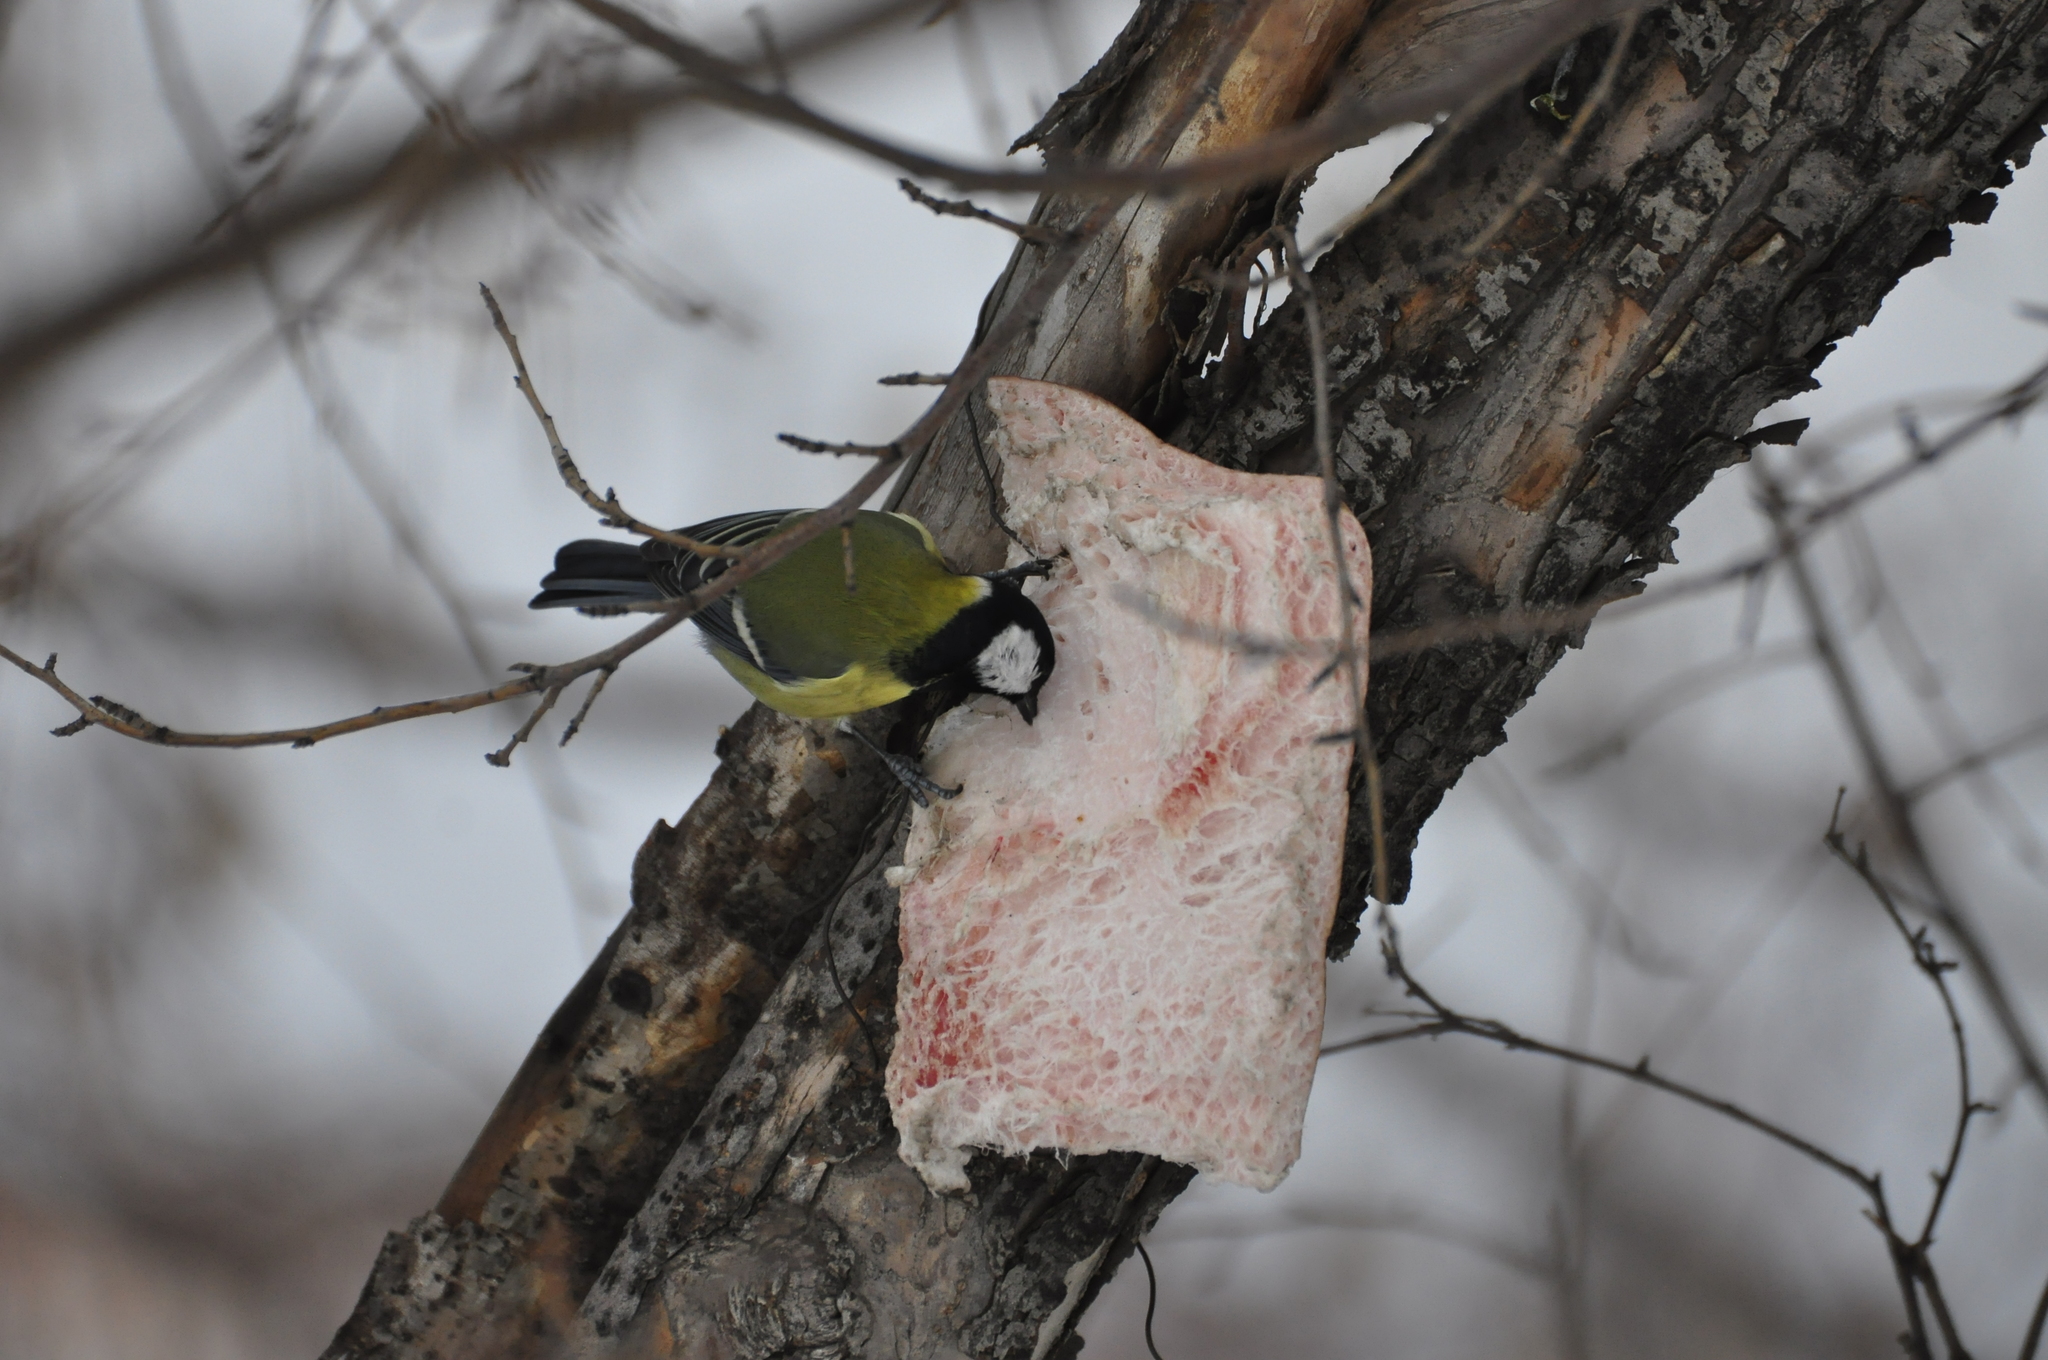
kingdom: Animalia
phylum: Chordata
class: Aves
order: Passeriformes
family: Paridae
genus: Parus
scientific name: Parus major
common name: Great tit
